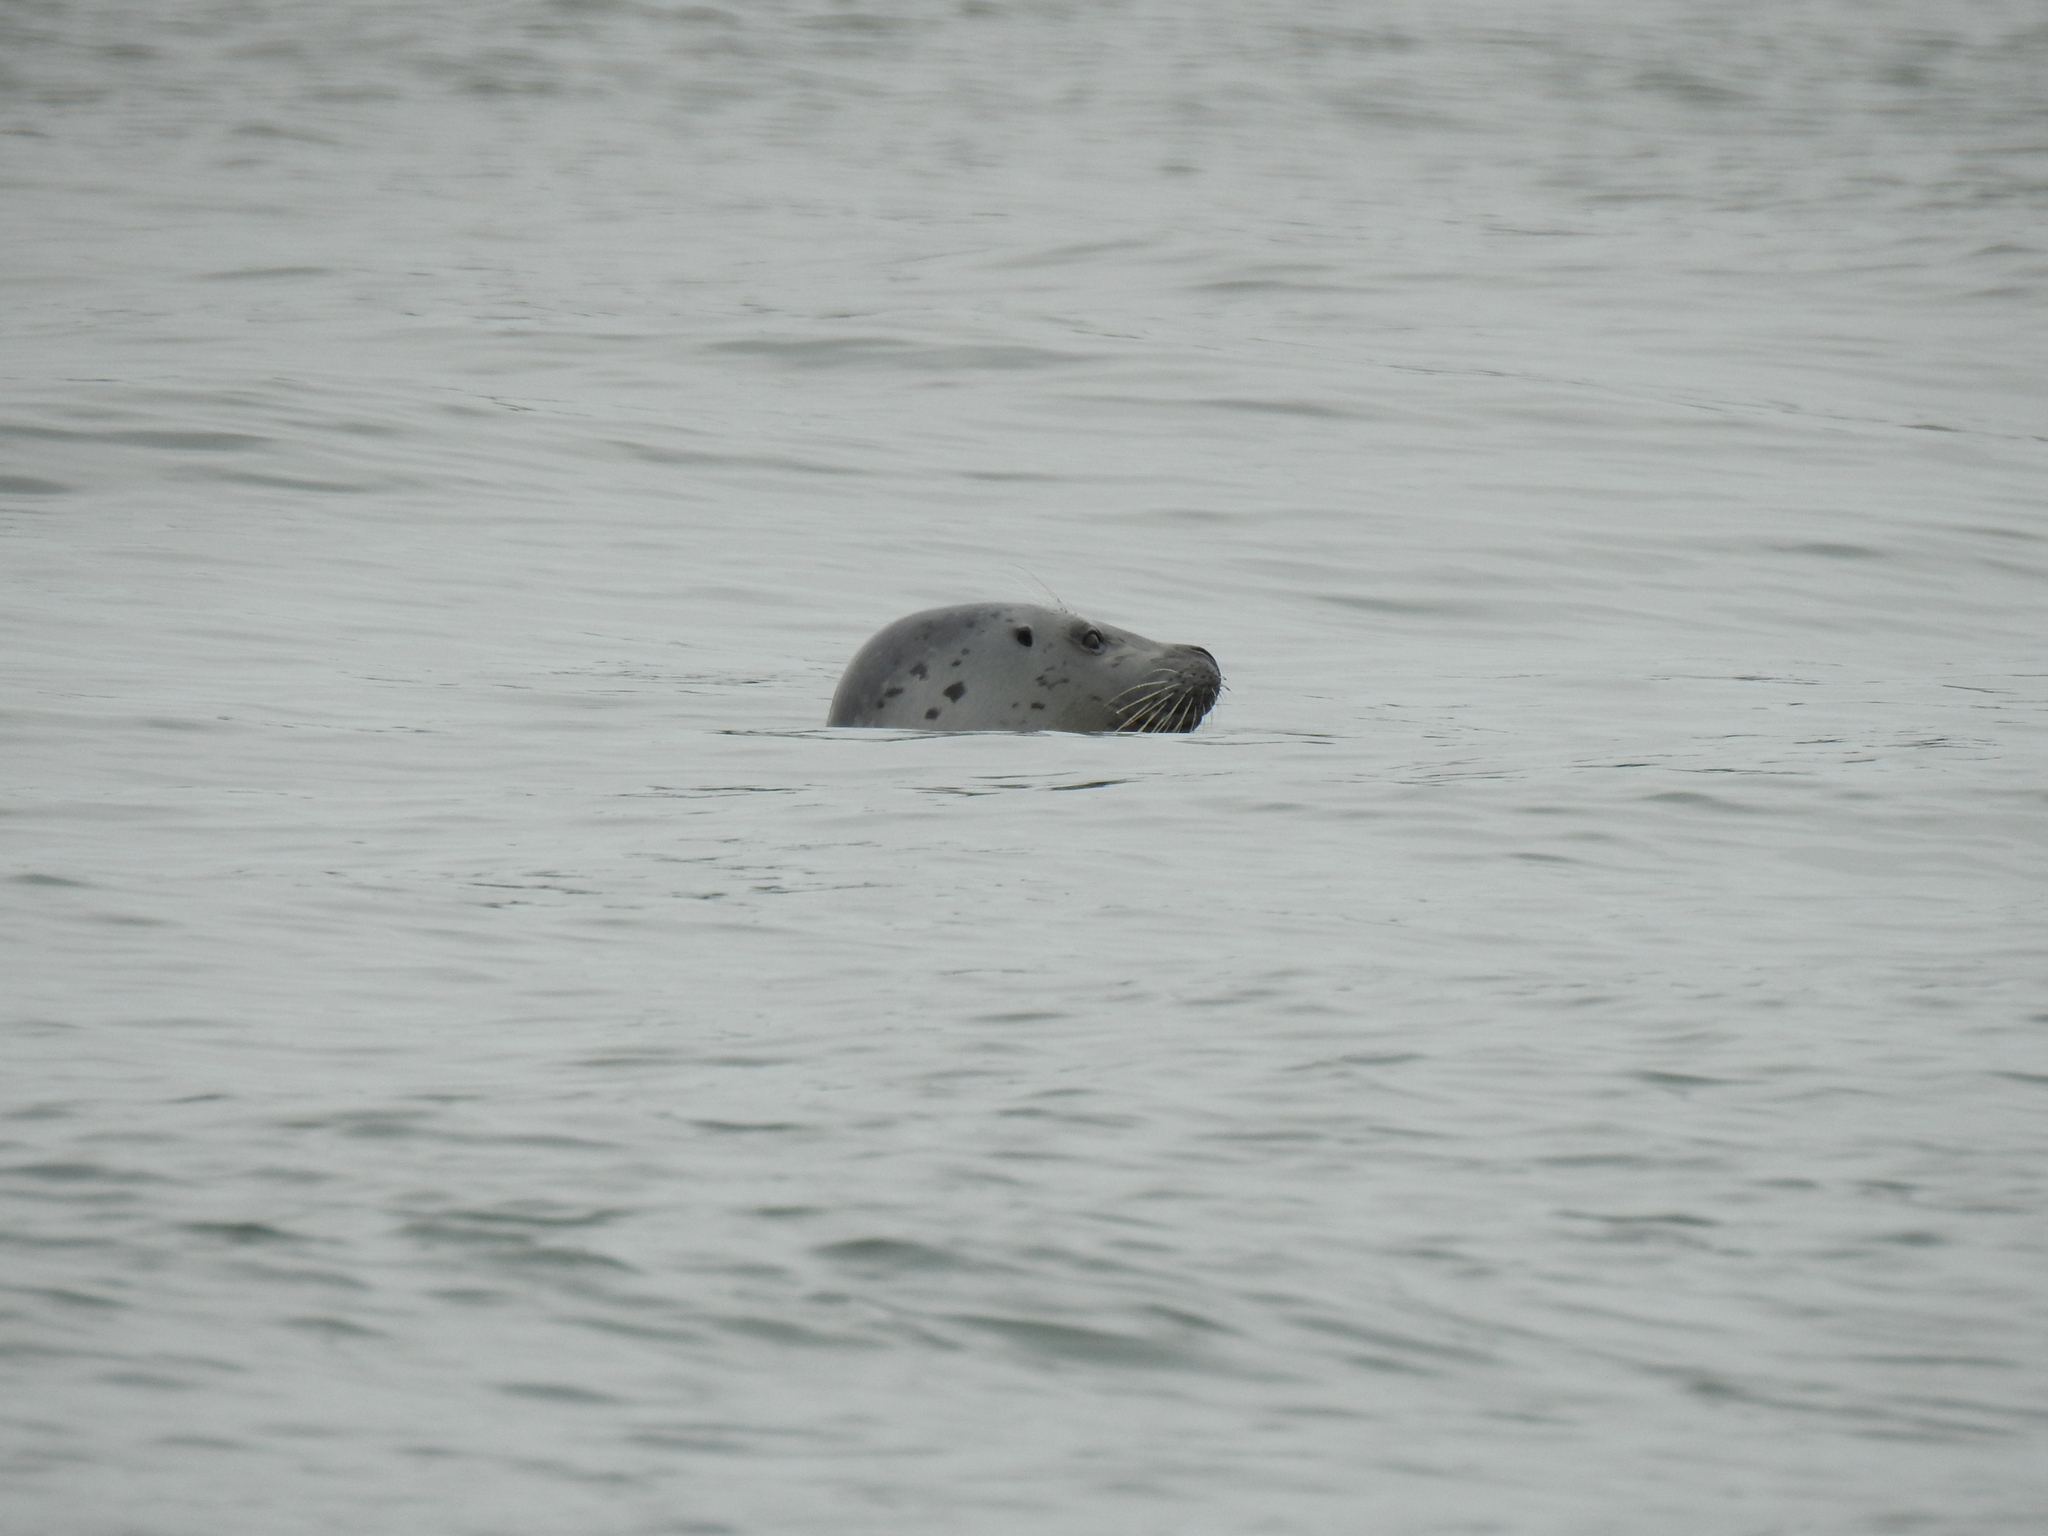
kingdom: Animalia
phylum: Chordata
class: Mammalia
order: Carnivora
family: Phocidae
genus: Phoca
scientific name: Phoca vitulina
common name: Harbor seal
